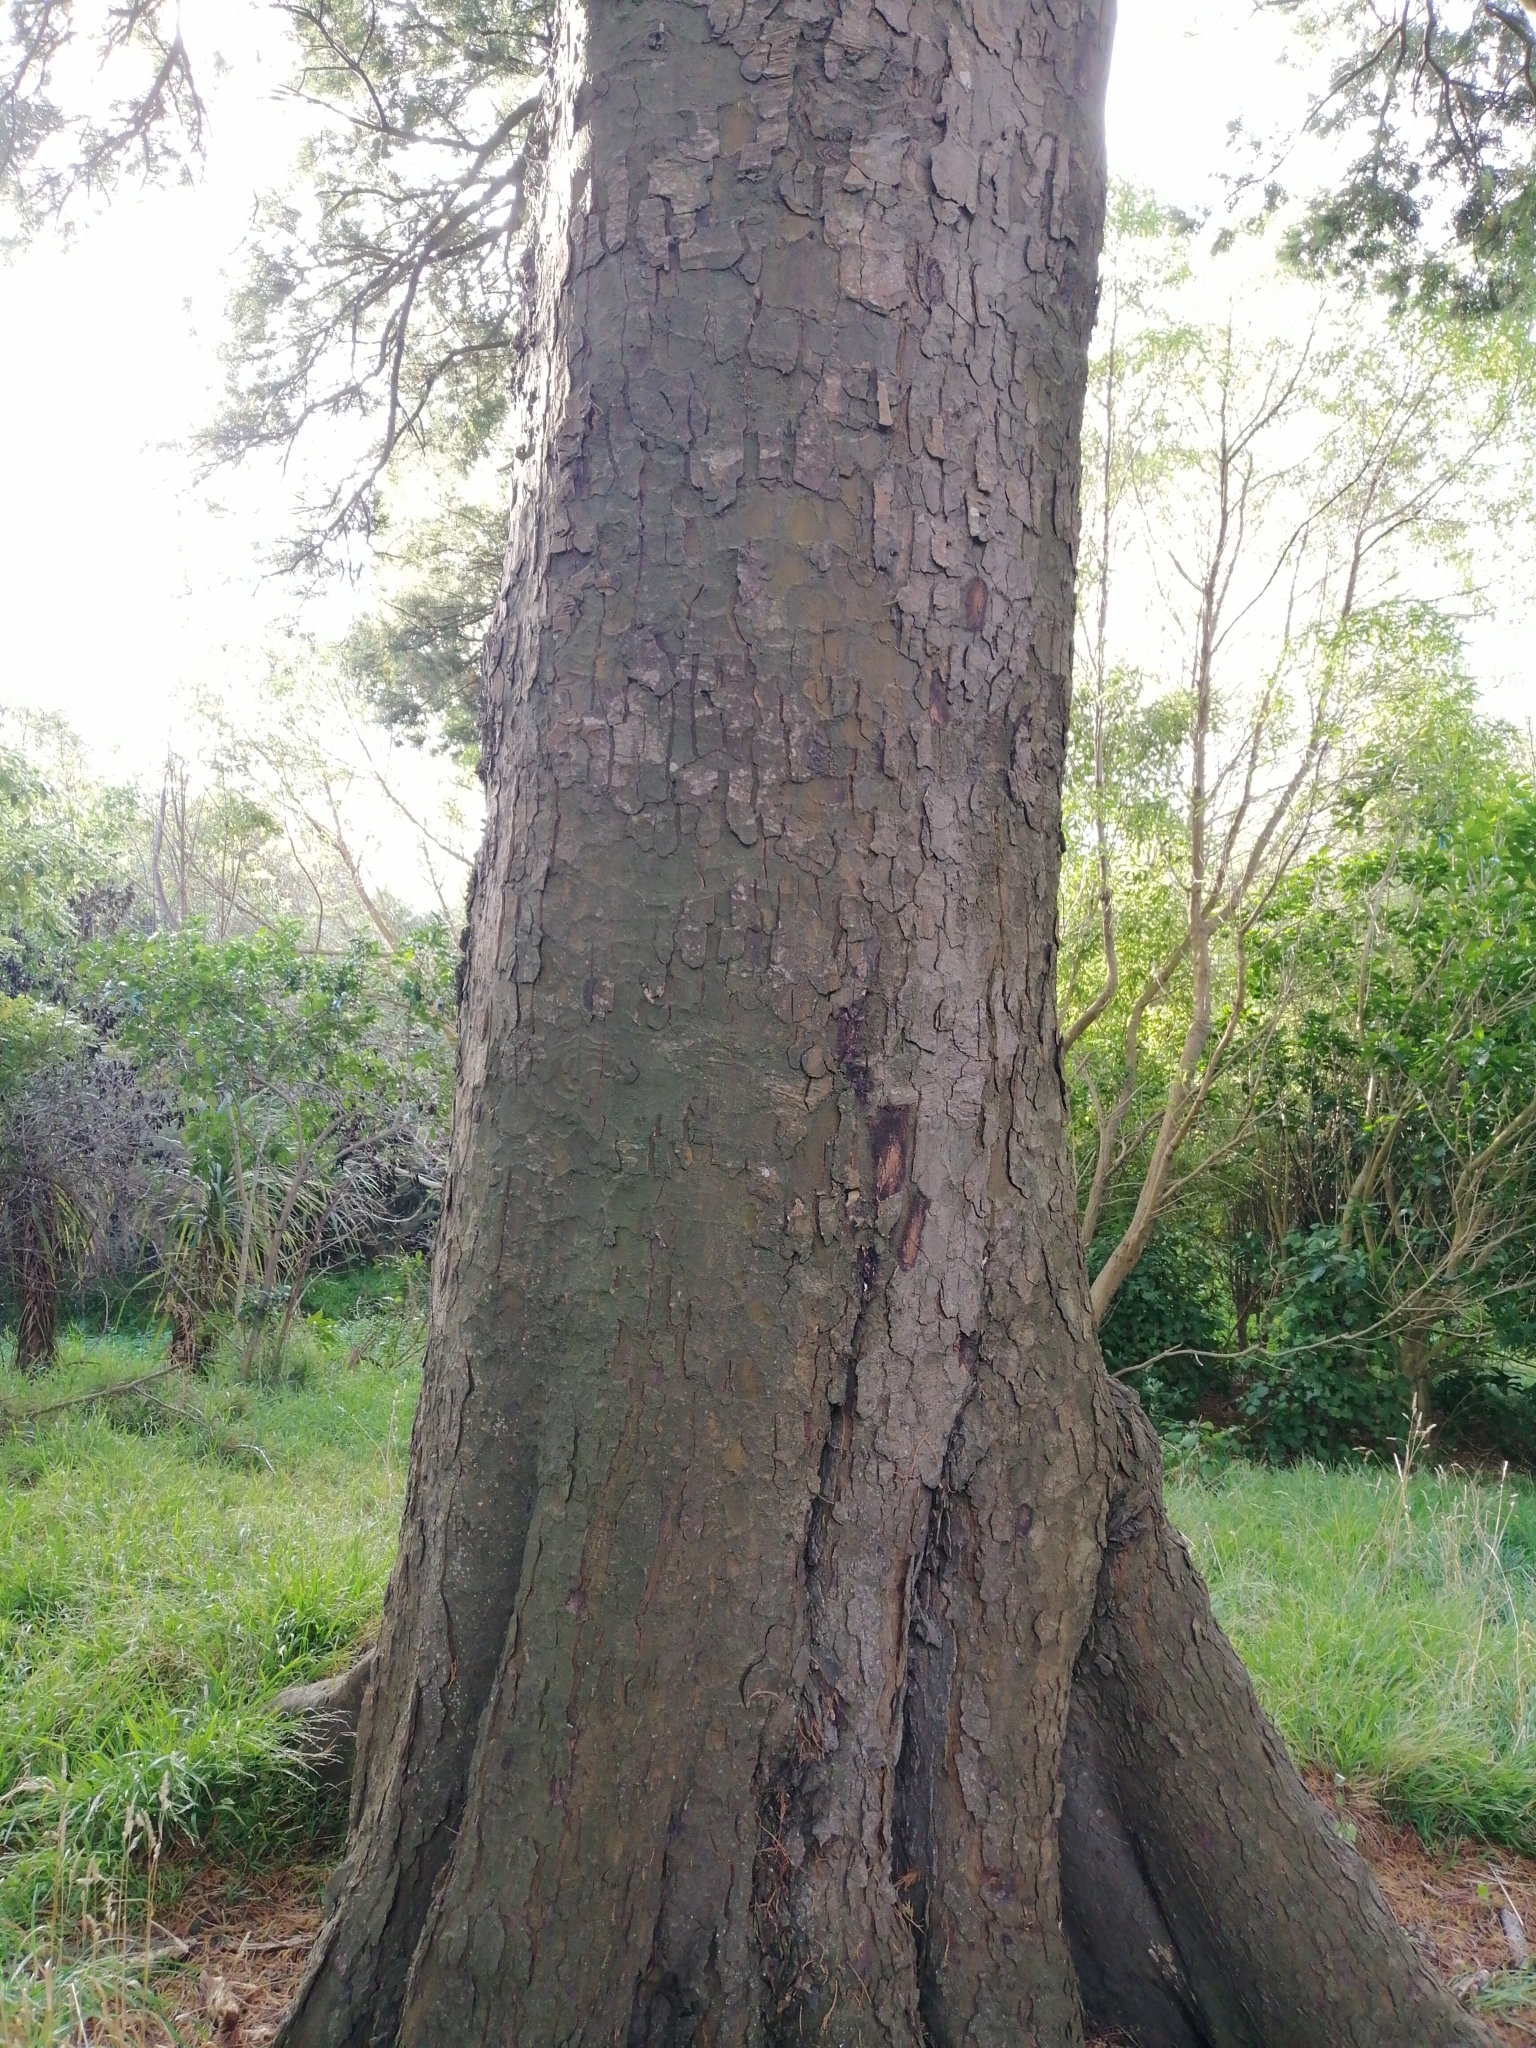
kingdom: Plantae
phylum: Tracheophyta
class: Pinopsida
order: Pinales
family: Podocarpaceae
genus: Dacrycarpus
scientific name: Dacrycarpus dacrydioides
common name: White pine
